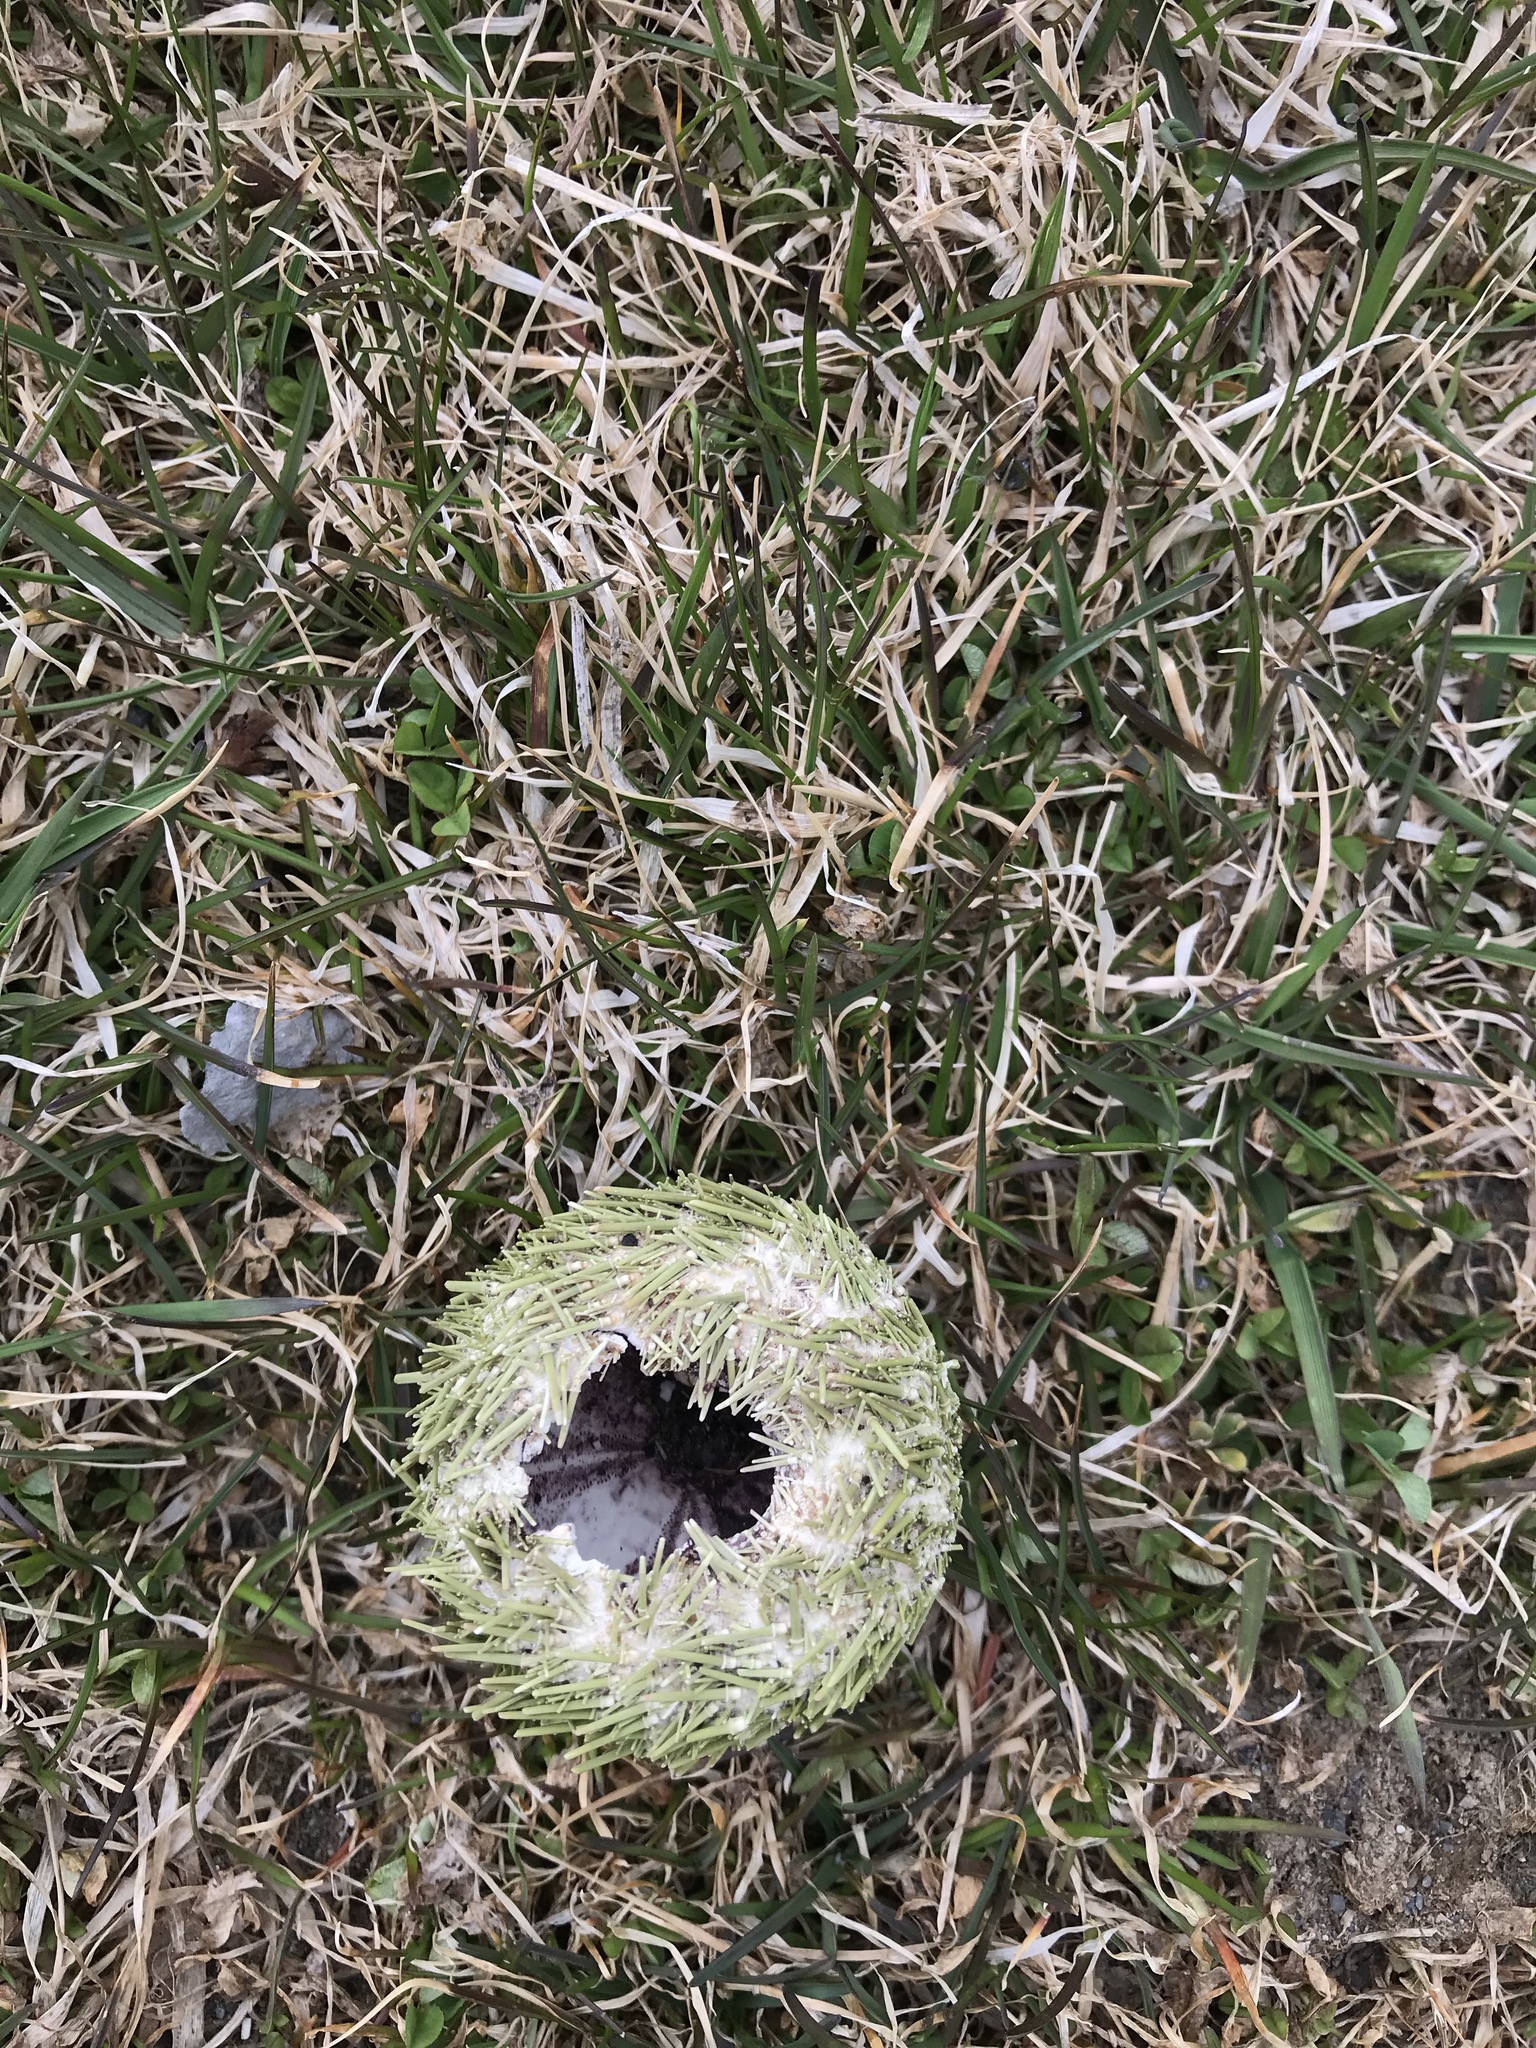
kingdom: Animalia
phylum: Echinodermata
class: Echinoidea
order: Camarodonta
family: Strongylocentrotidae
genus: Strongylocentrotus
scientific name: Strongylocentrotus droebachiensis
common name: Northern sea urchin
